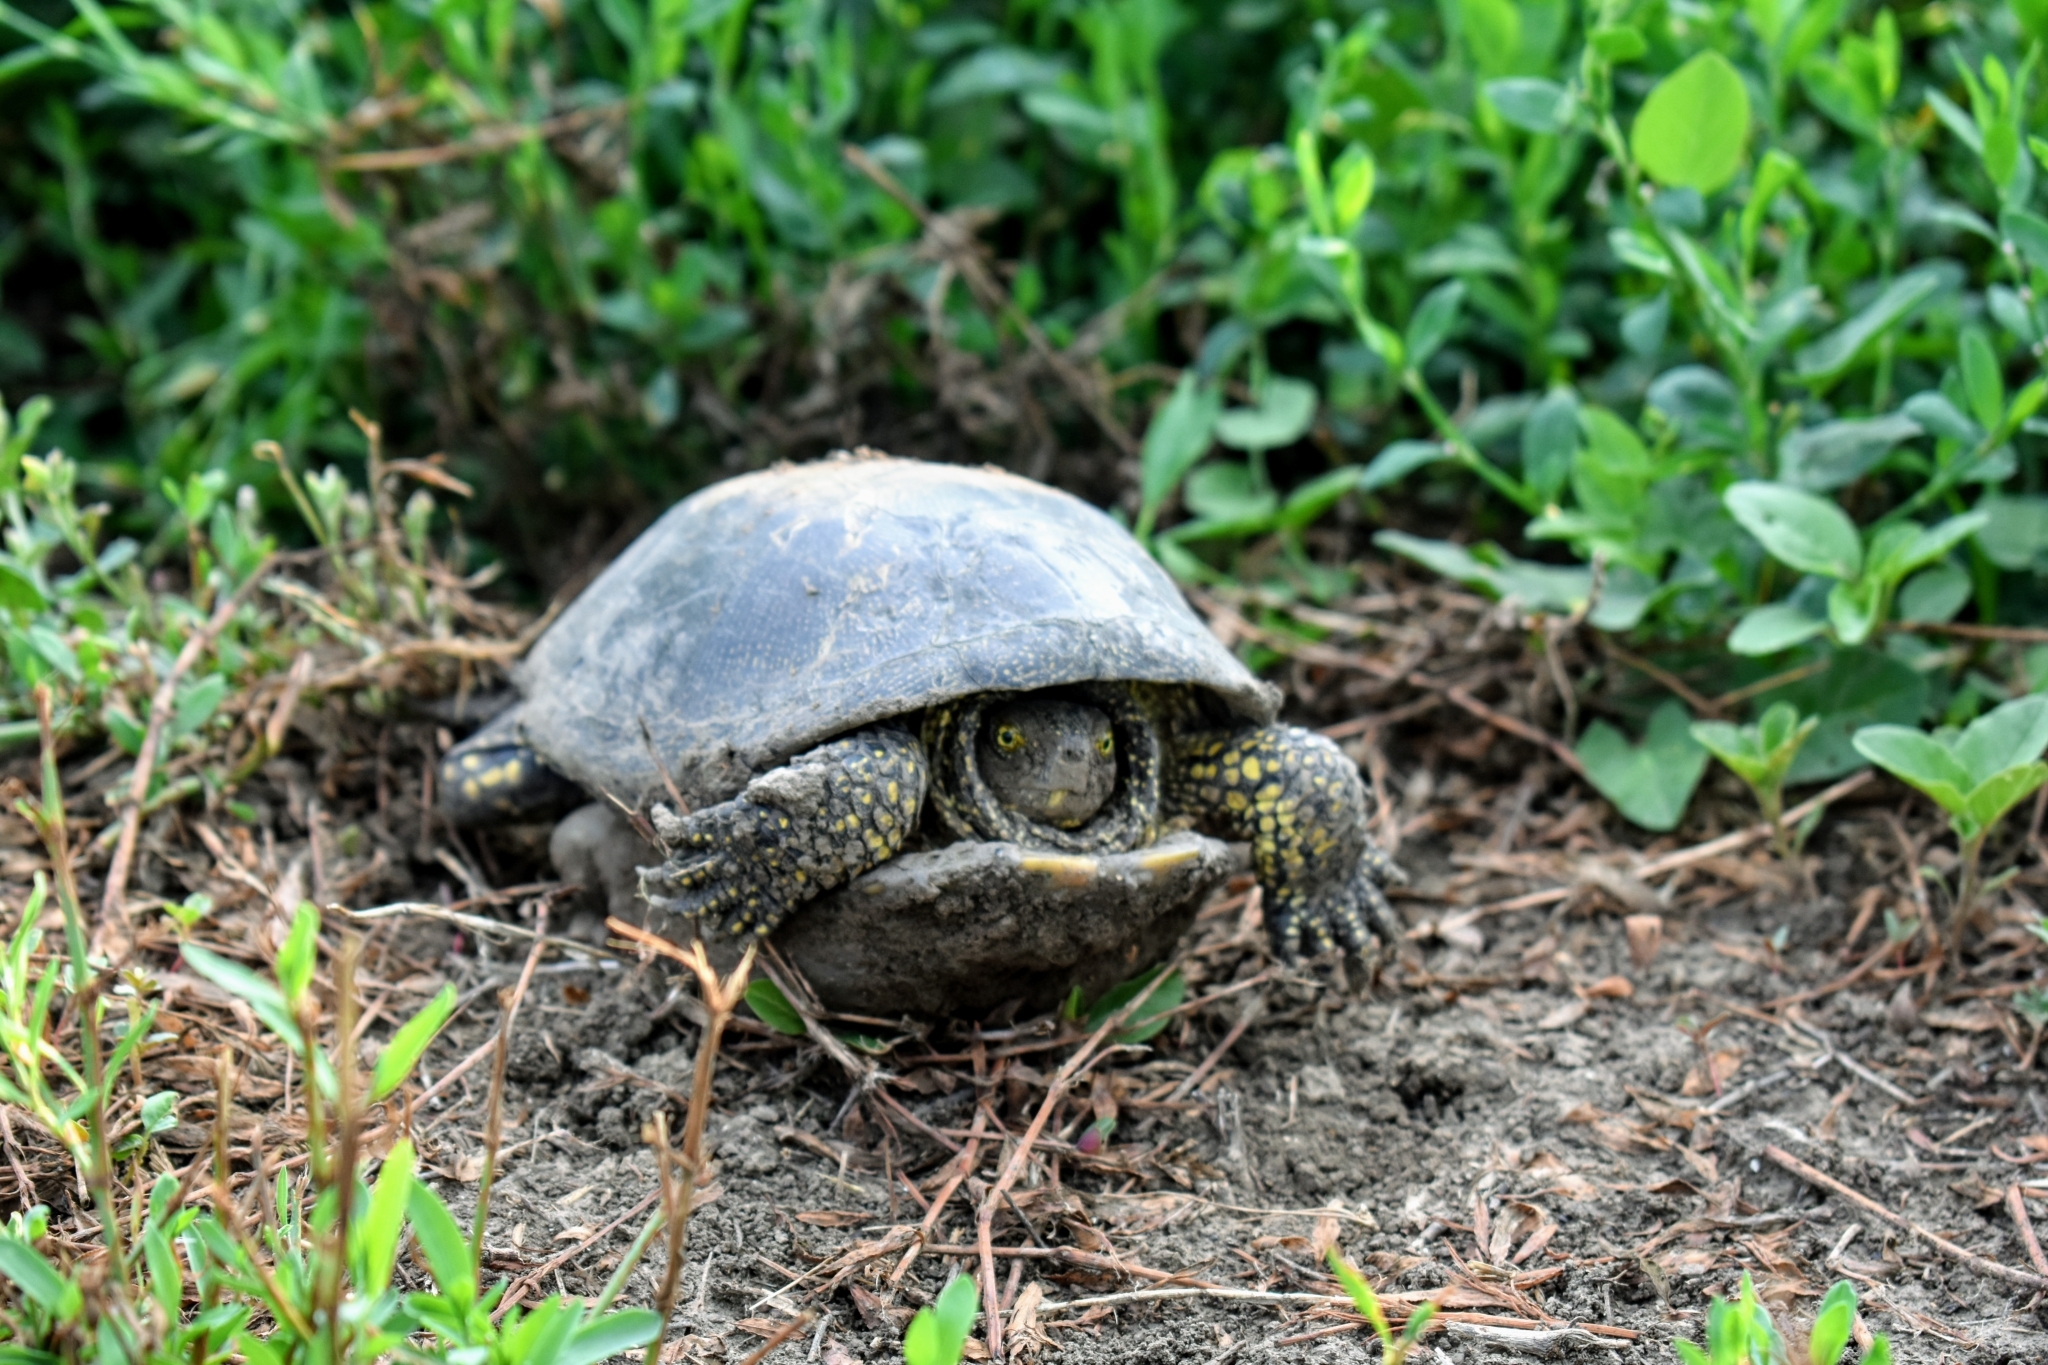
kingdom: Animalia
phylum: Chordata
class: Testudines
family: Emydidae
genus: Emys
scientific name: Emys orbicularis
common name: European pond turtle
